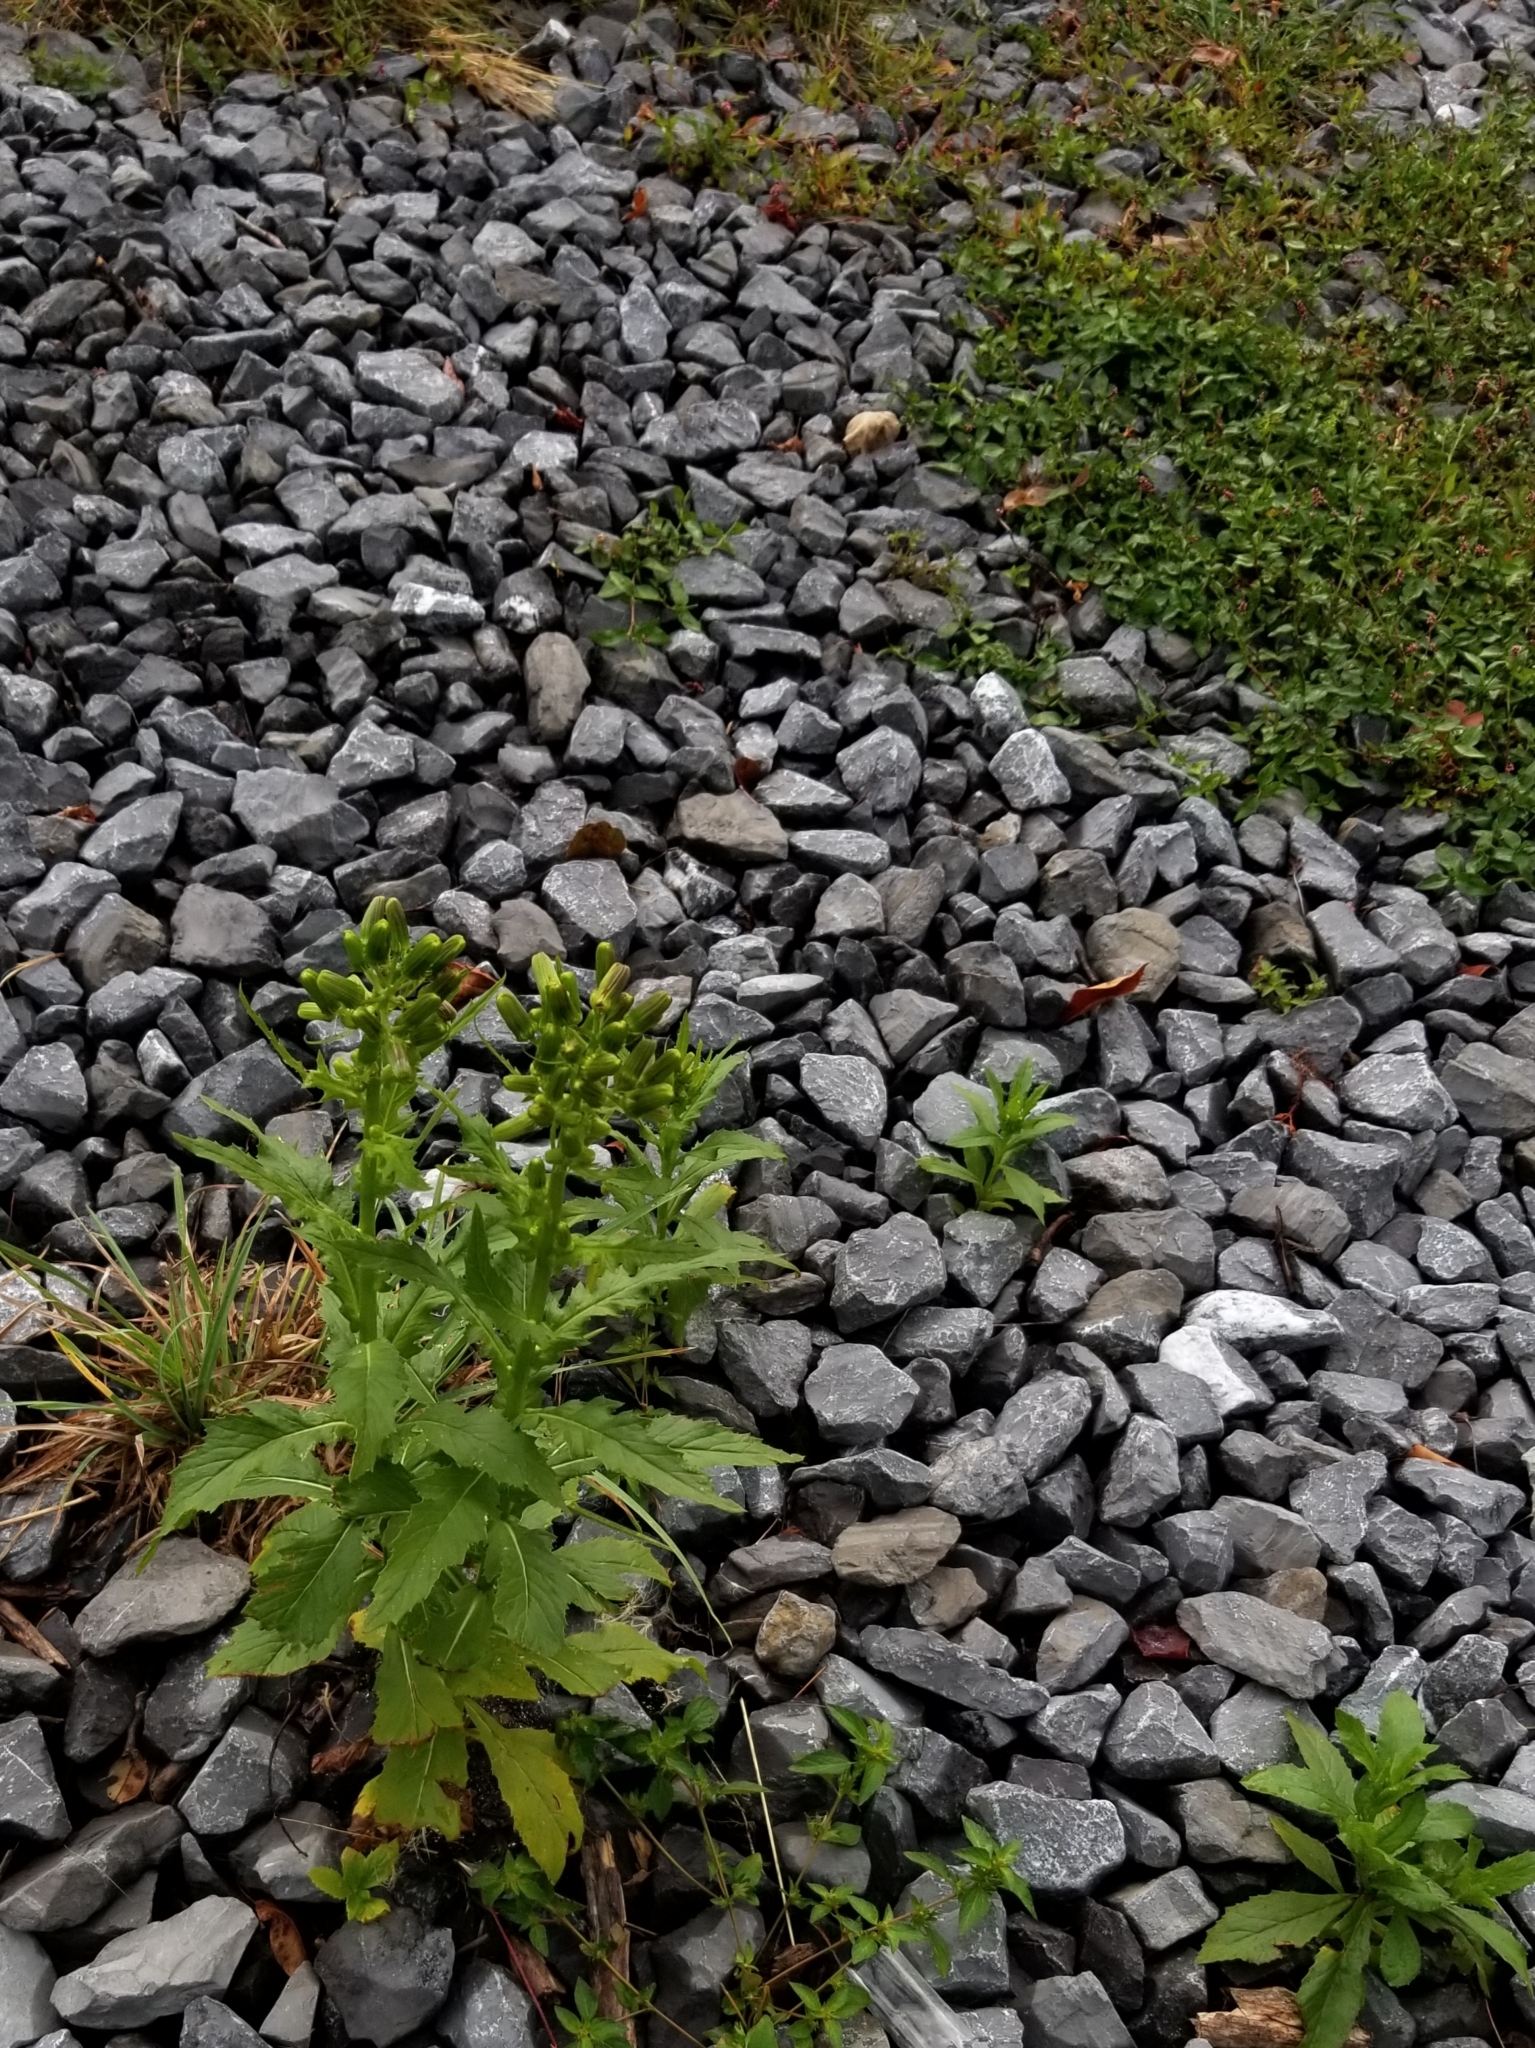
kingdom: Plantae
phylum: Tracheophyta
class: Magnoliopsida
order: Asterales
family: Asteraceae
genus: Erechtites
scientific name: Erechtites hieraciifolius
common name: American burnweed
